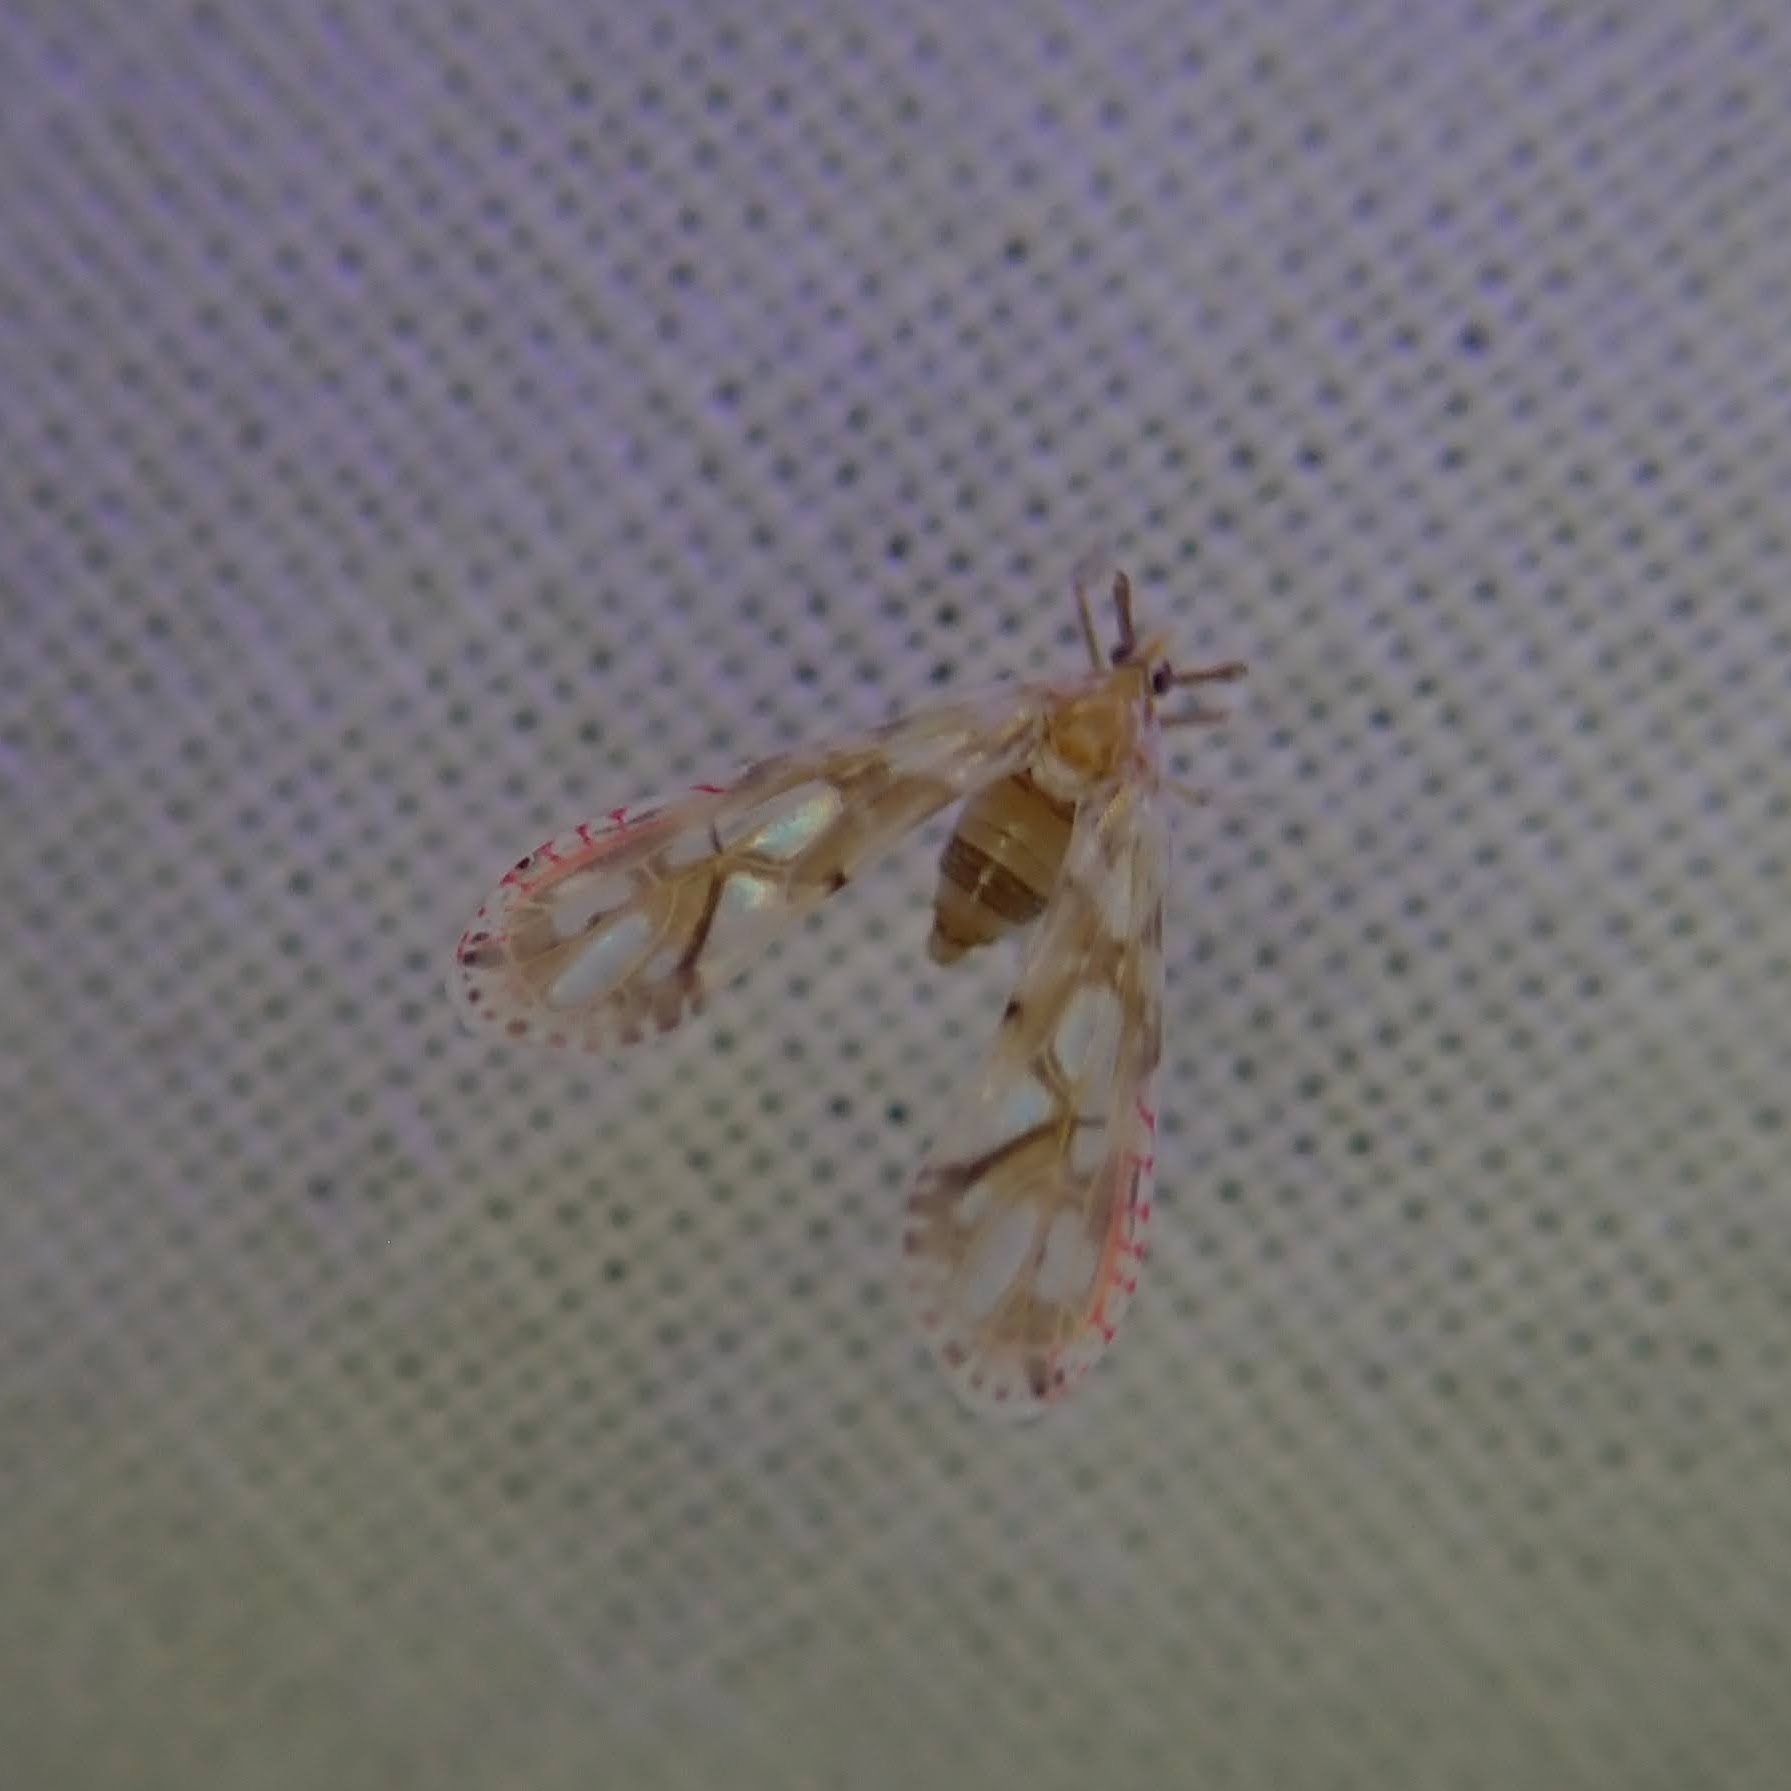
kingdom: Animalia
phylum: Arthropoda
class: Insecta
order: Hemiptera
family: Derbidae
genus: Anotia
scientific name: Anotia kirkaldyi
